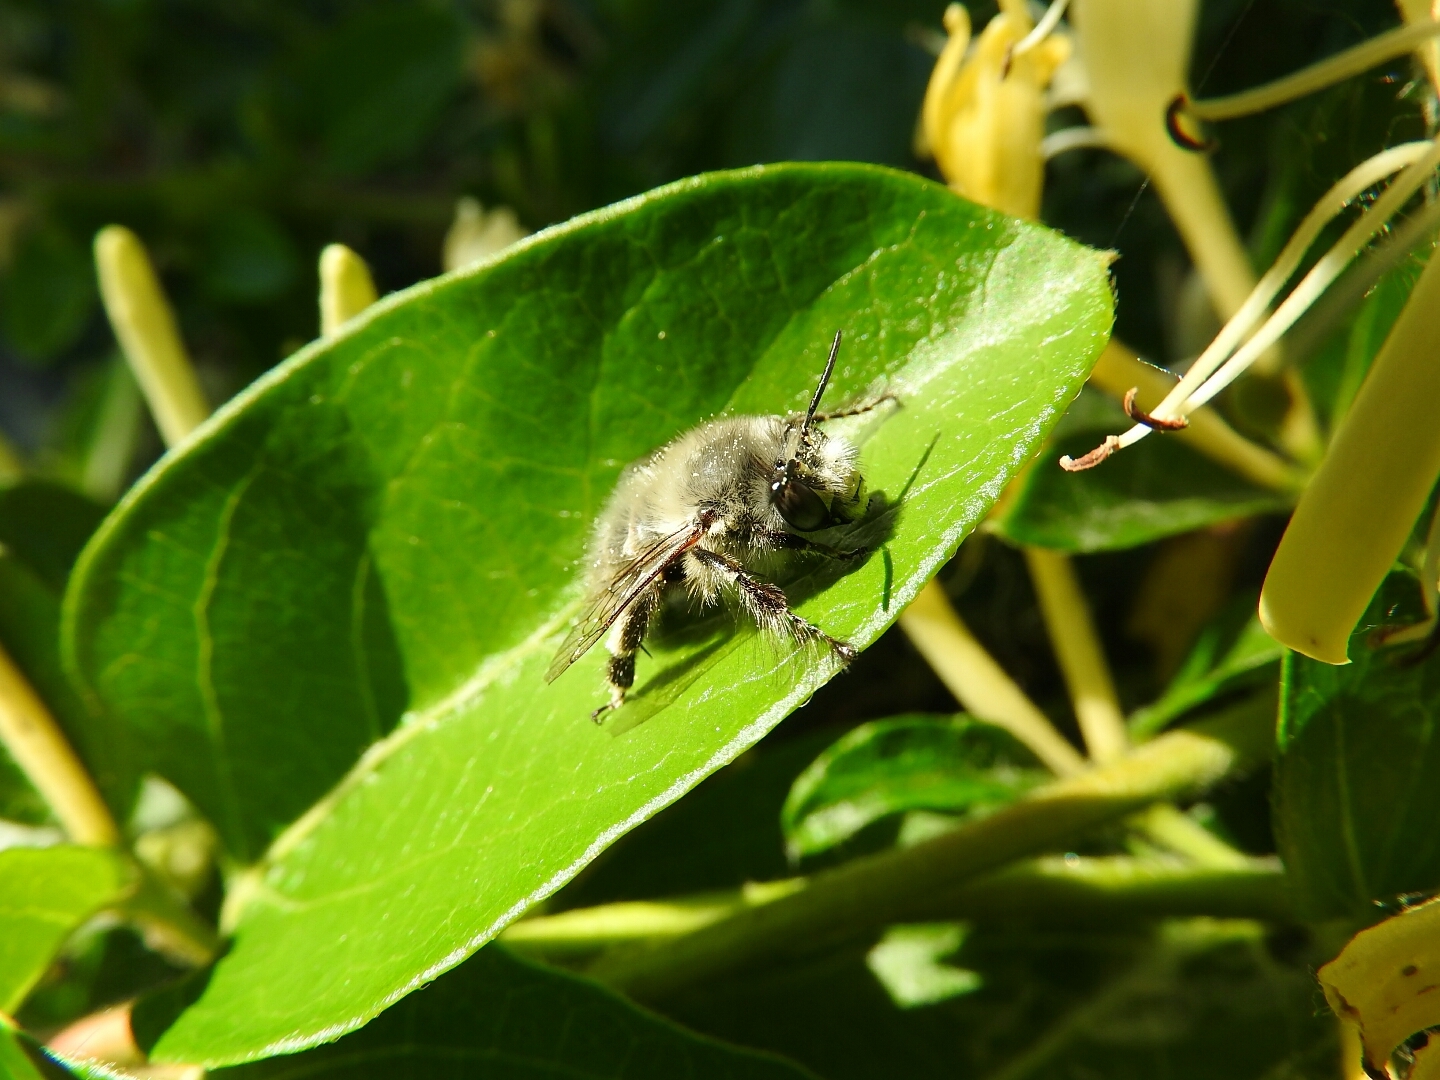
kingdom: Animalia
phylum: Arthropoda
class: Insecta
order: Hymenoptera
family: Apidae
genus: Anthophora
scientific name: Anthophora plumipes
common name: Hairy-footed flower bee
